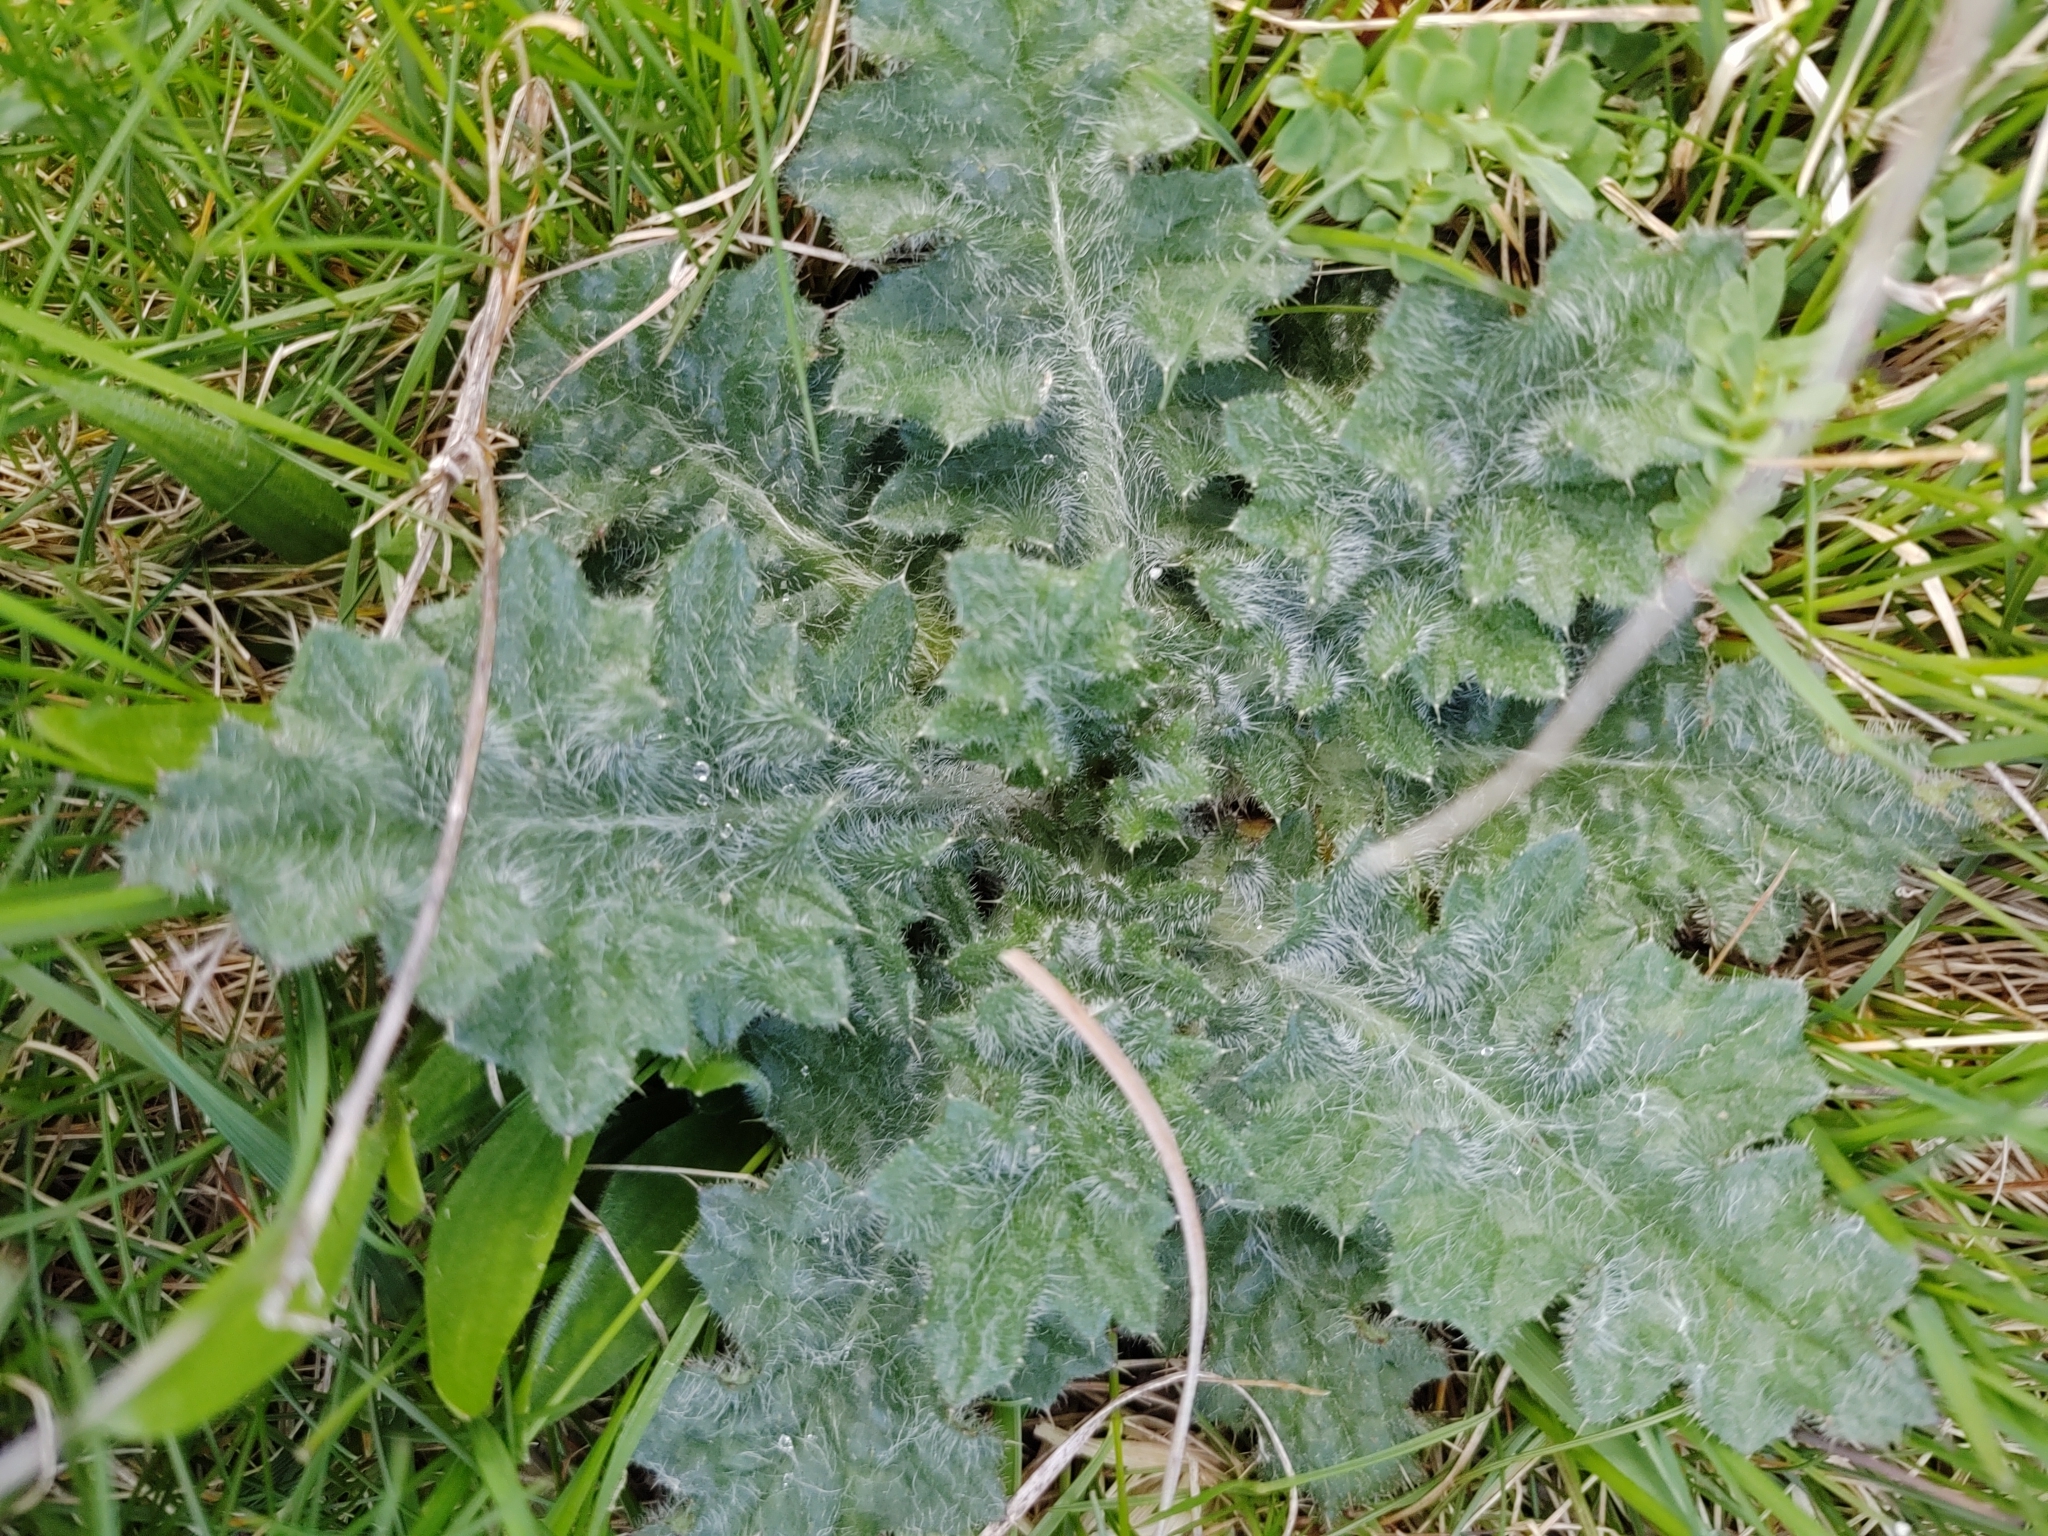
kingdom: Plantae
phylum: Tracheophyta
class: Magnoliopsida
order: Asterales
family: Asteraceae
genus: Cirsium
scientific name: Cirsium vulgare
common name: Bull thistle
